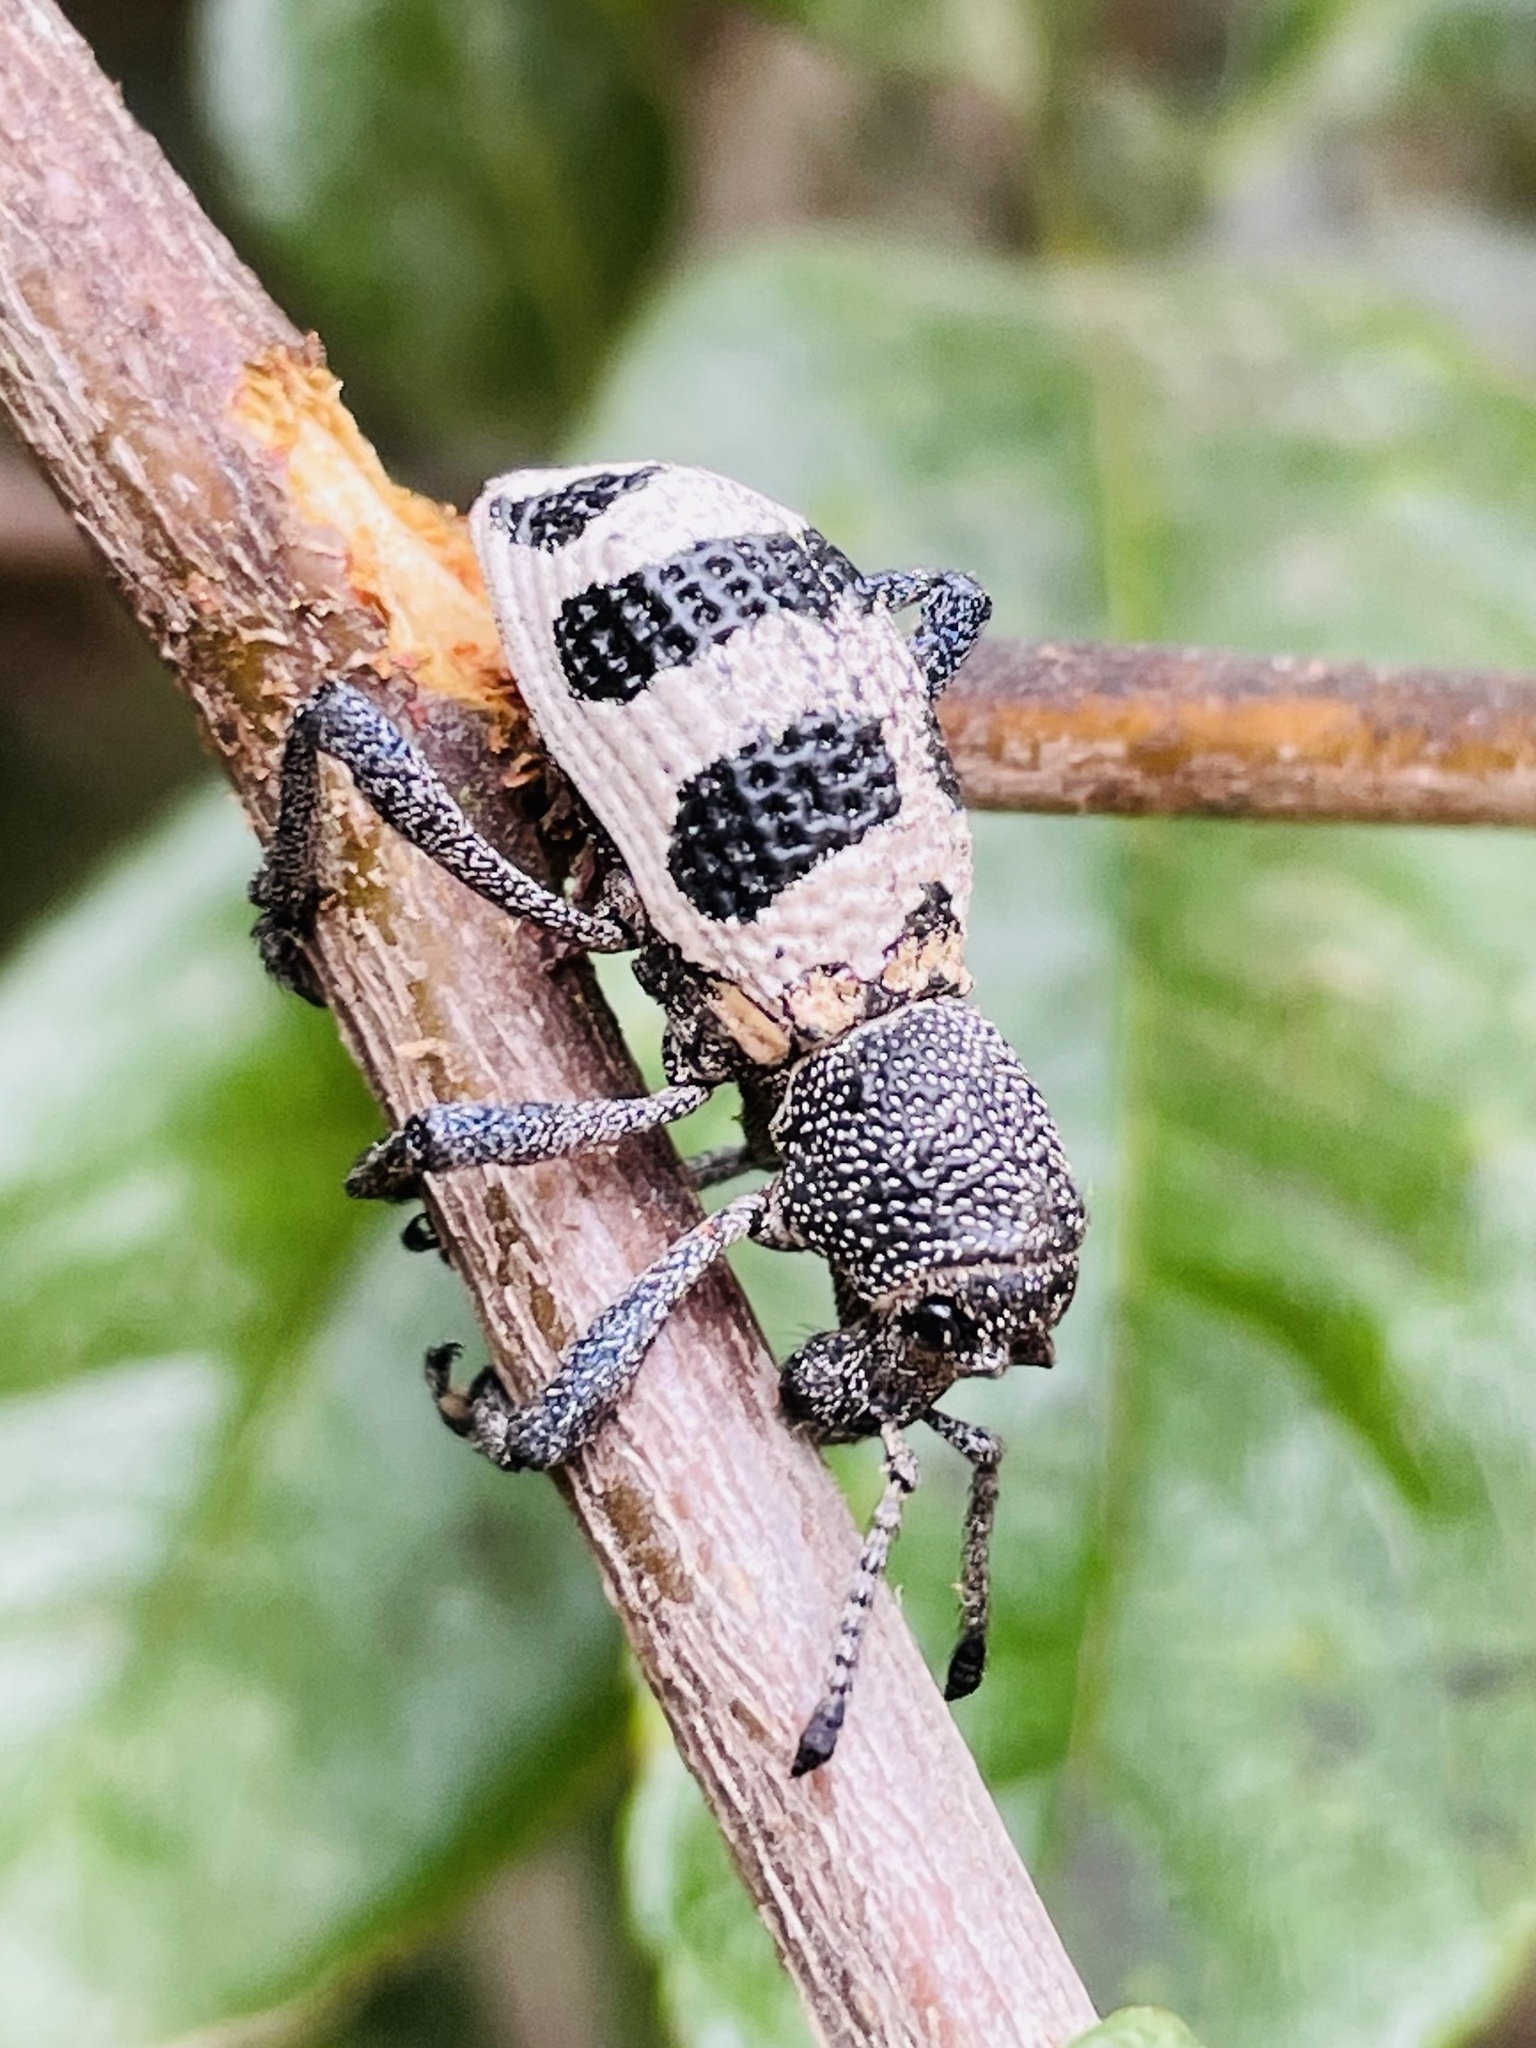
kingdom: Animalia
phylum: Arthropoda
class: Insecta
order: Coleoptera
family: Curculionidae
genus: Aegorhinus
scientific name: Aegorhinus phaleratus
